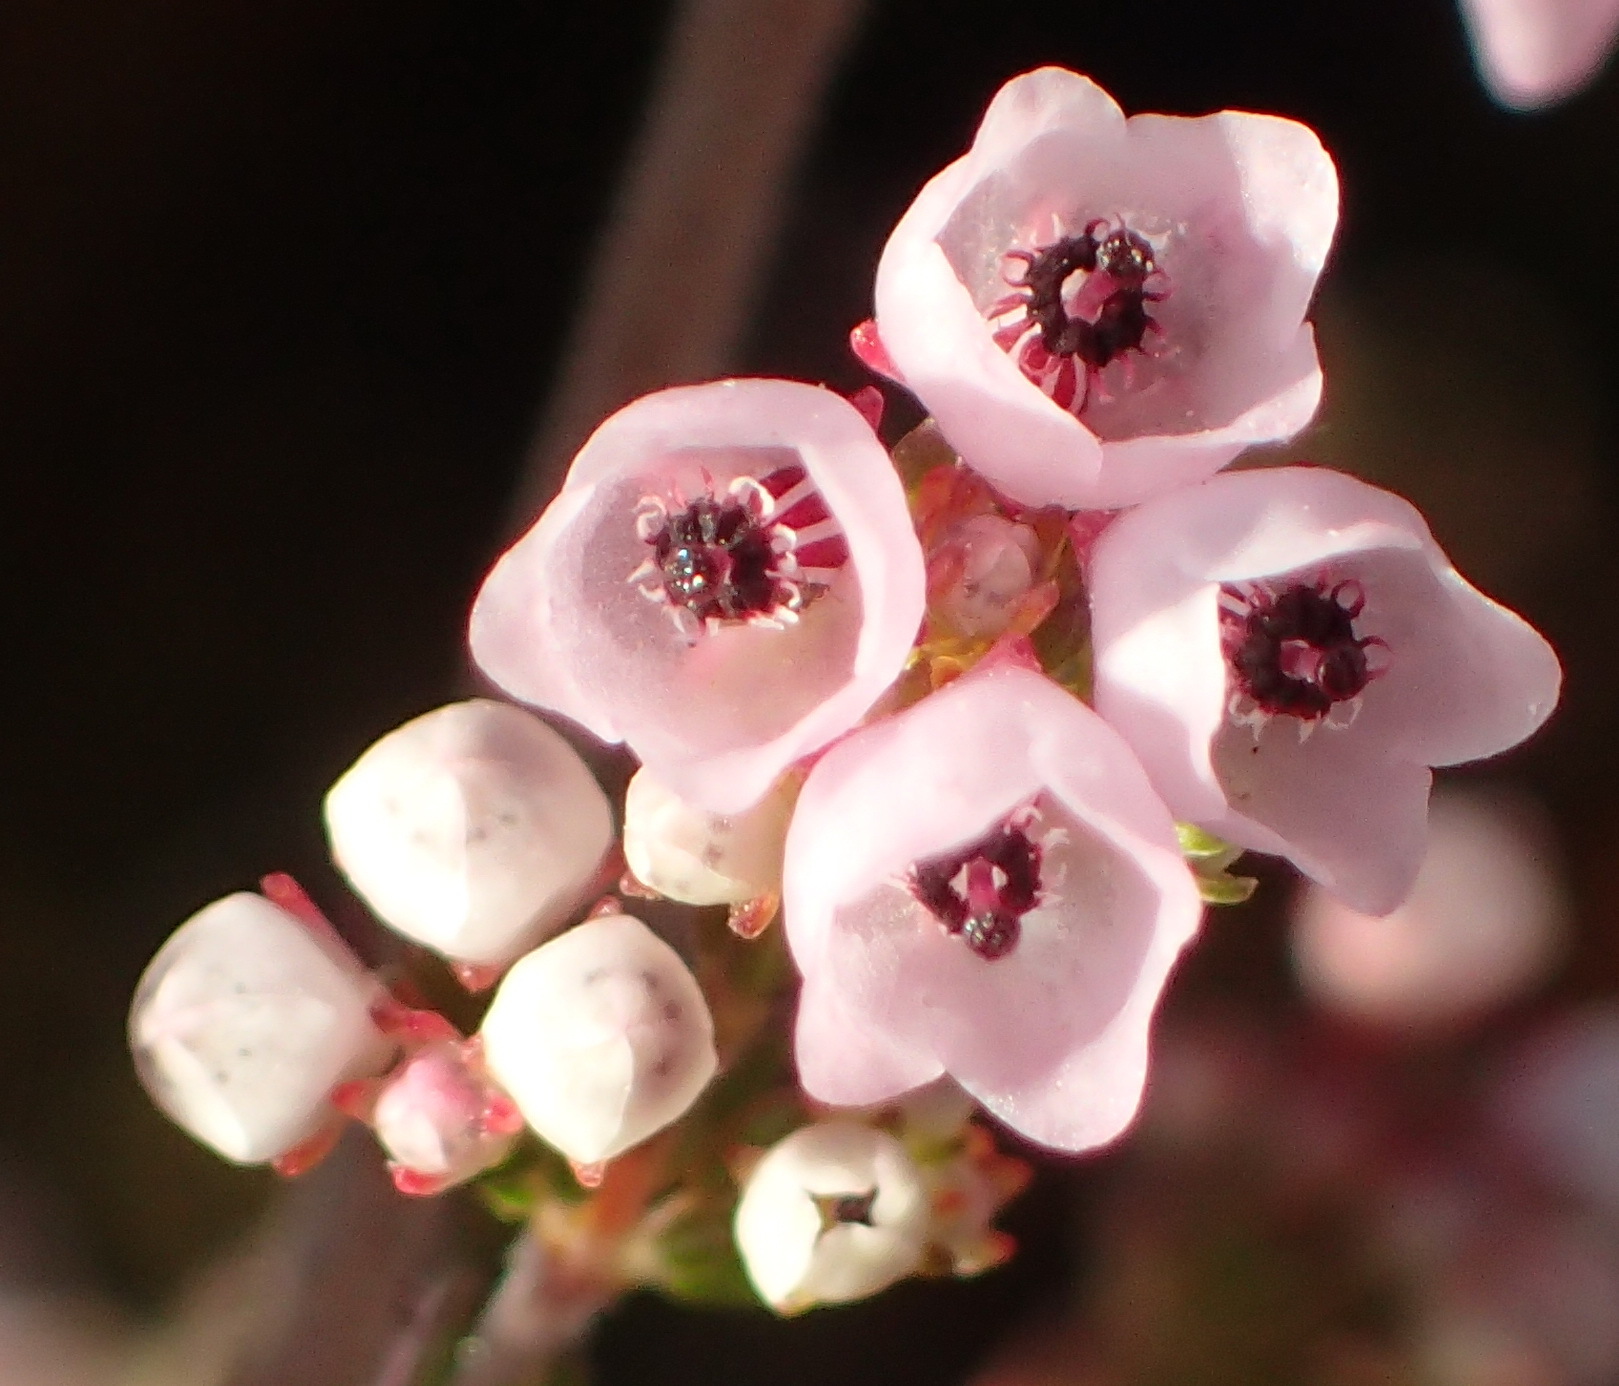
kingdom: Plantae
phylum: Tracheophyta
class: Magnoliopsida
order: Ericales
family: Ericaceae
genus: Erica
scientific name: Erica quadrangularis
